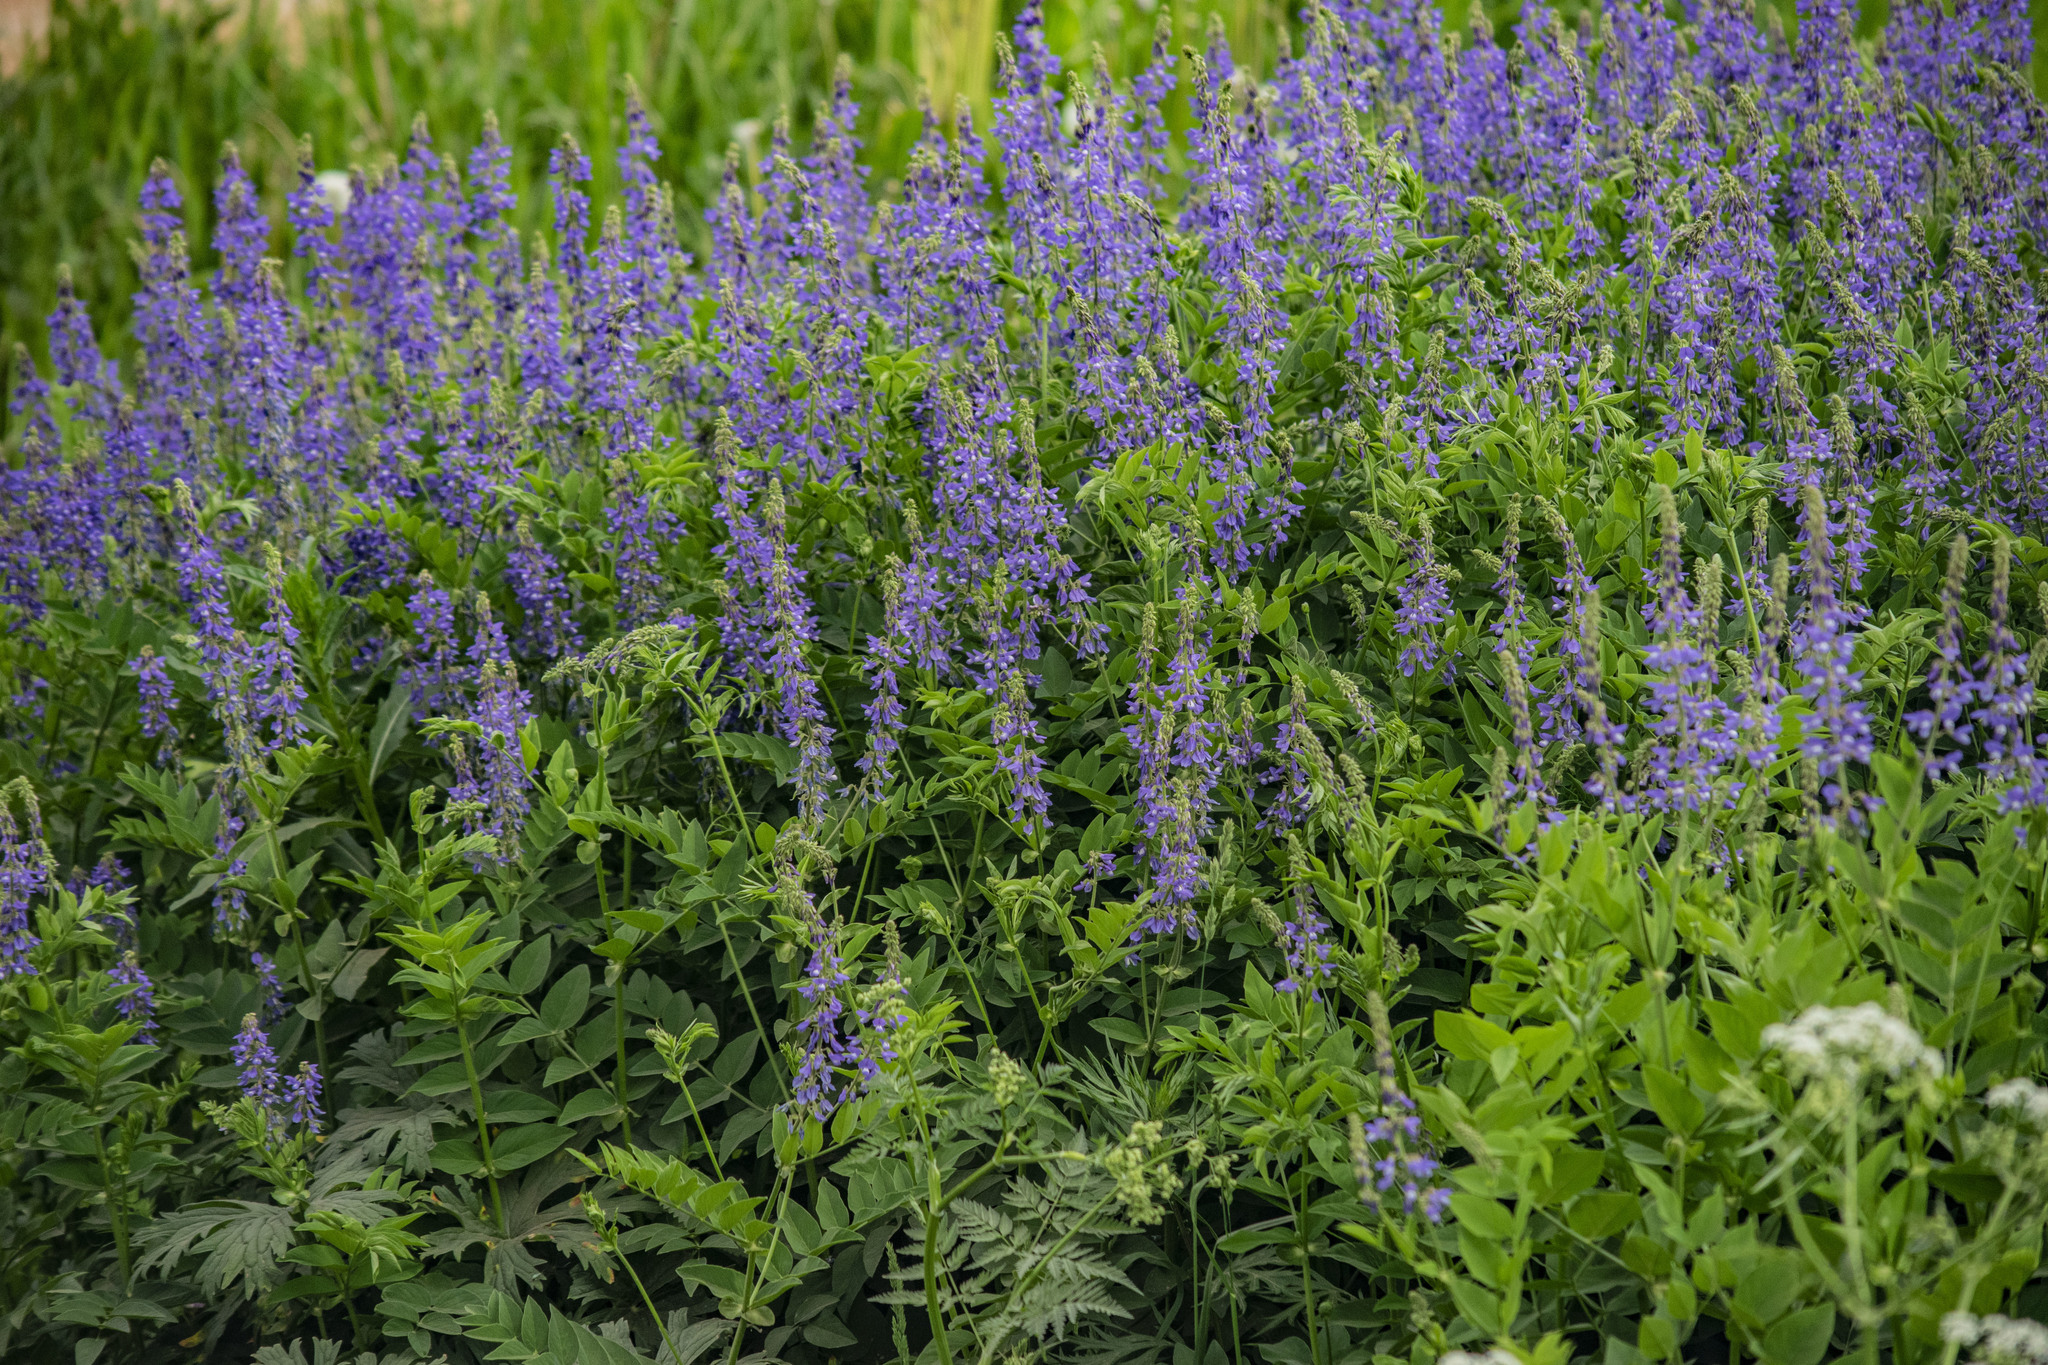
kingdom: Plantae
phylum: Tracheophyta
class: Magnoliopsida
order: Fabales
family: Fabaceae
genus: Galega
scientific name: Galega orientalis
